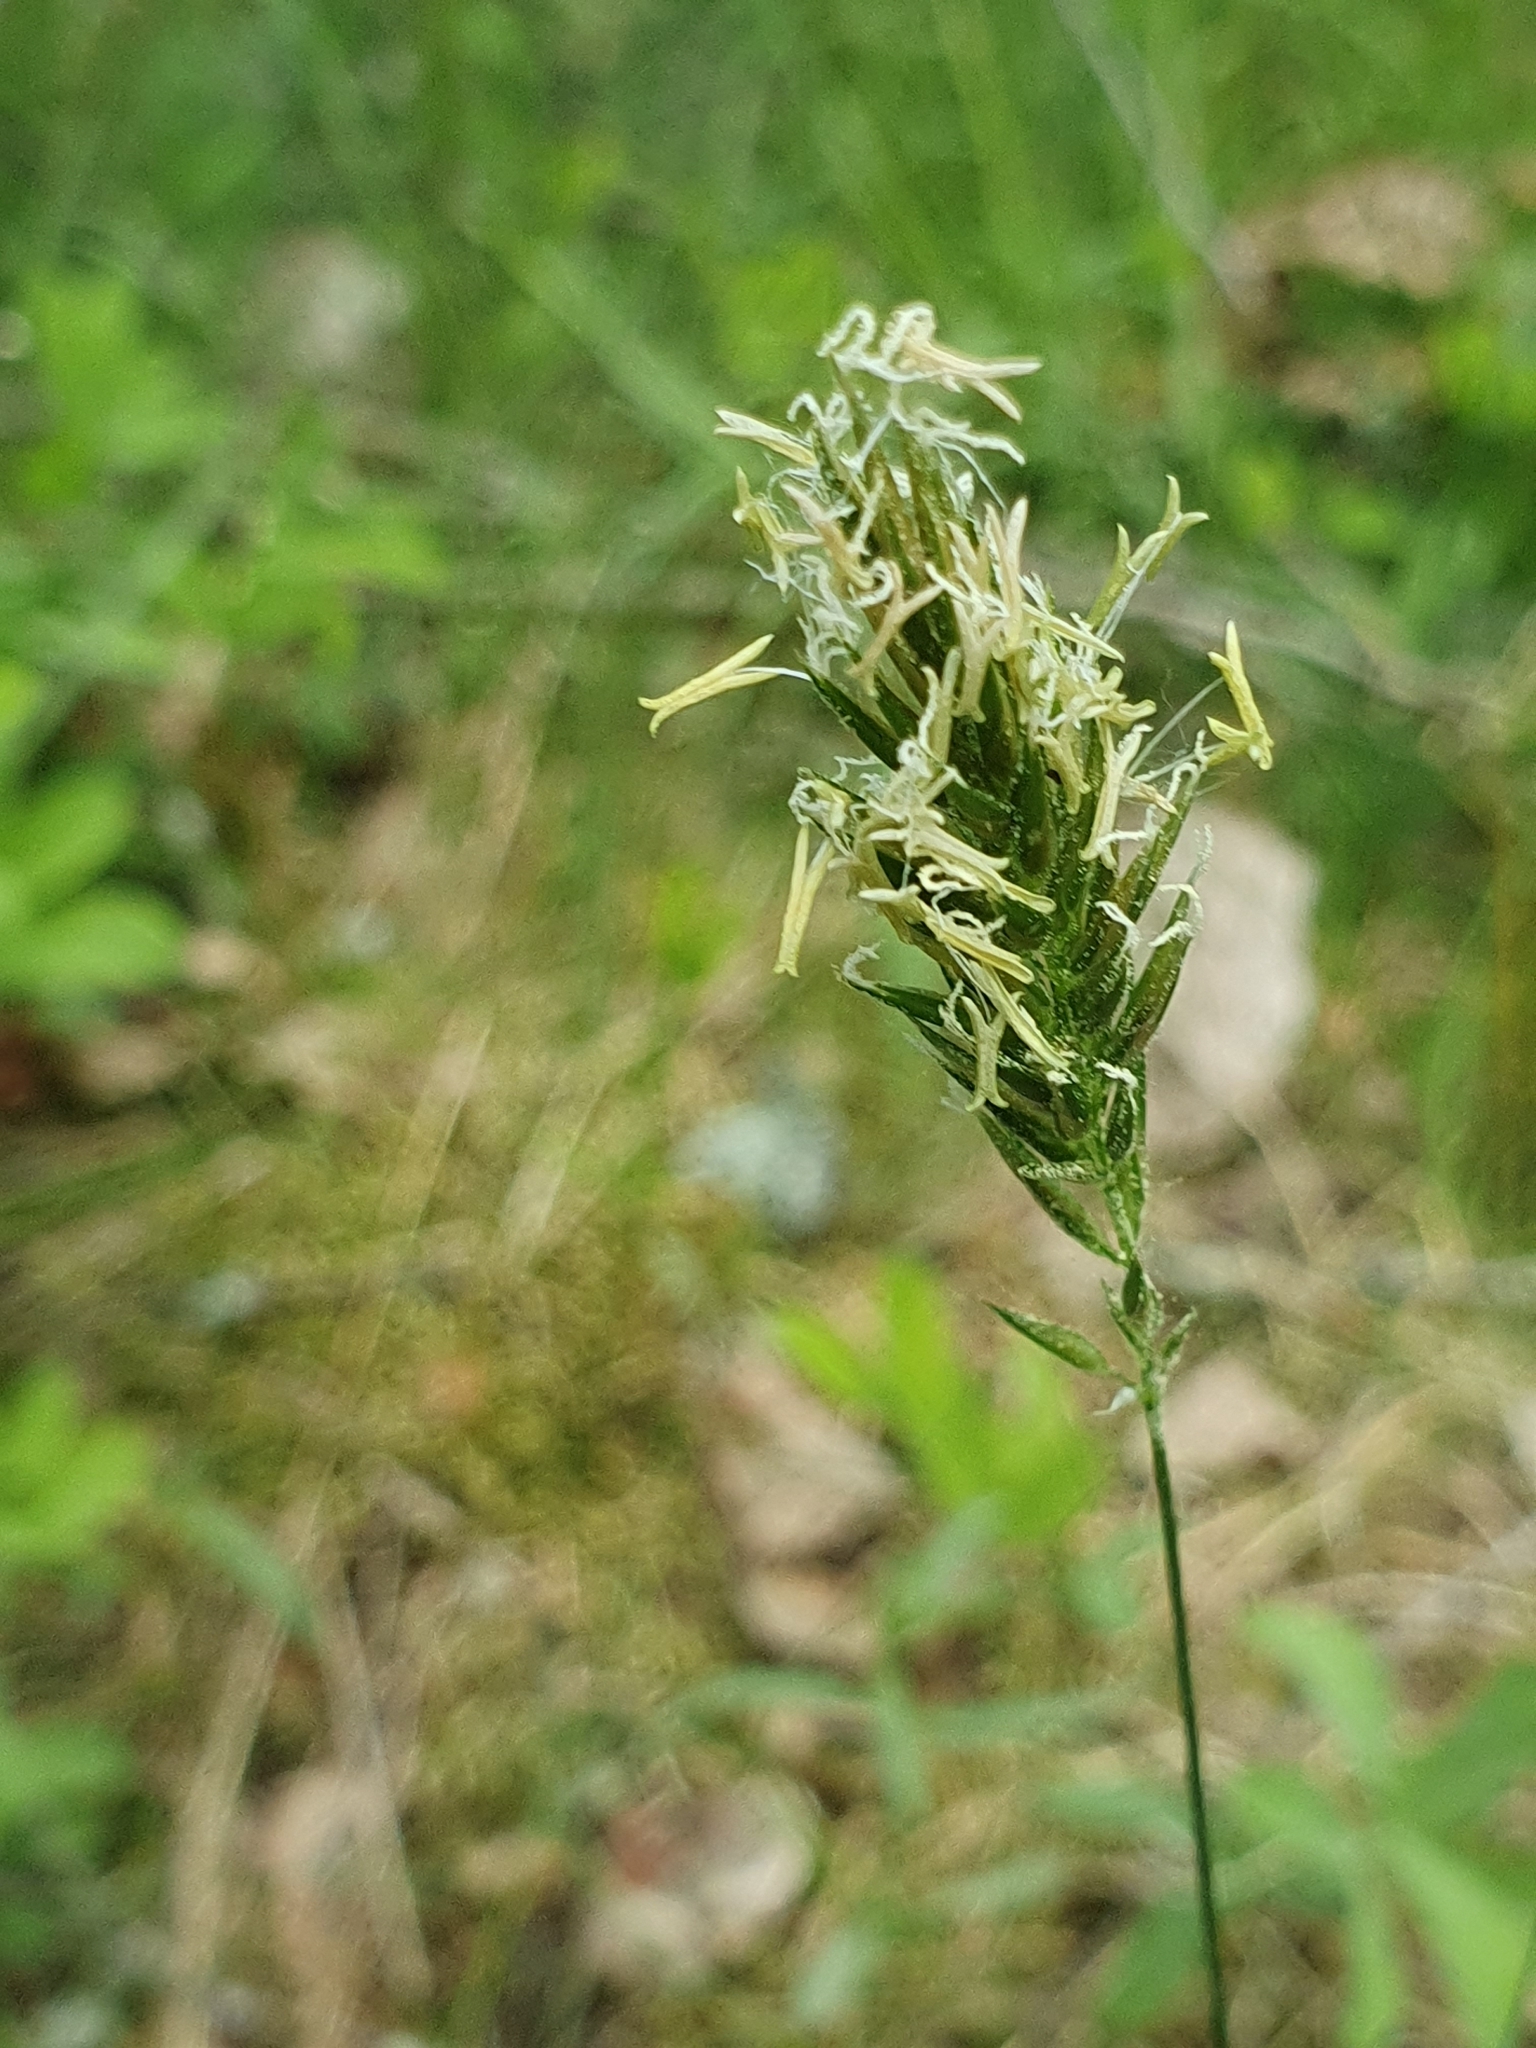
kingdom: Plantae
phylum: Tracheophyta
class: Liliopsida
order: Poales
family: Poaceae
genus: Anthoxanthum
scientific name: Anthoxanthum odoratum
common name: Sweet vernalgrass
